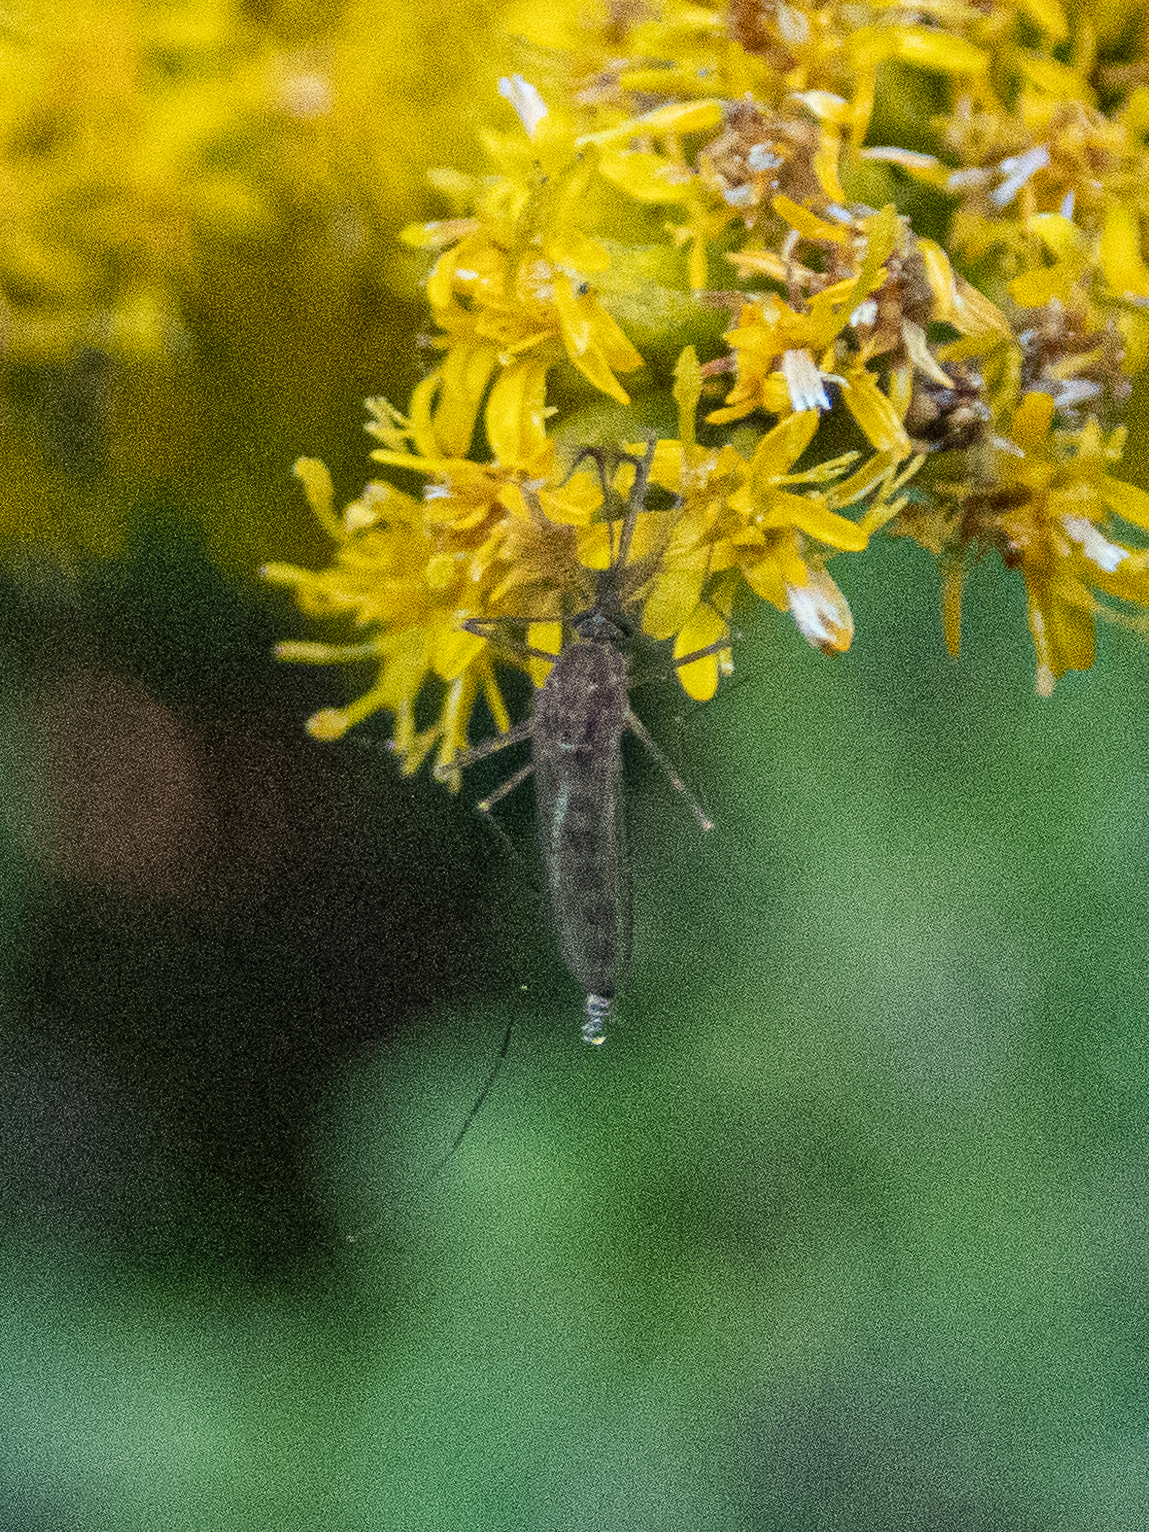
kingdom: Animalia
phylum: Arthropoda
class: Insecta
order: Diptera
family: Culicidae
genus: Culex
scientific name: Culex restuans
